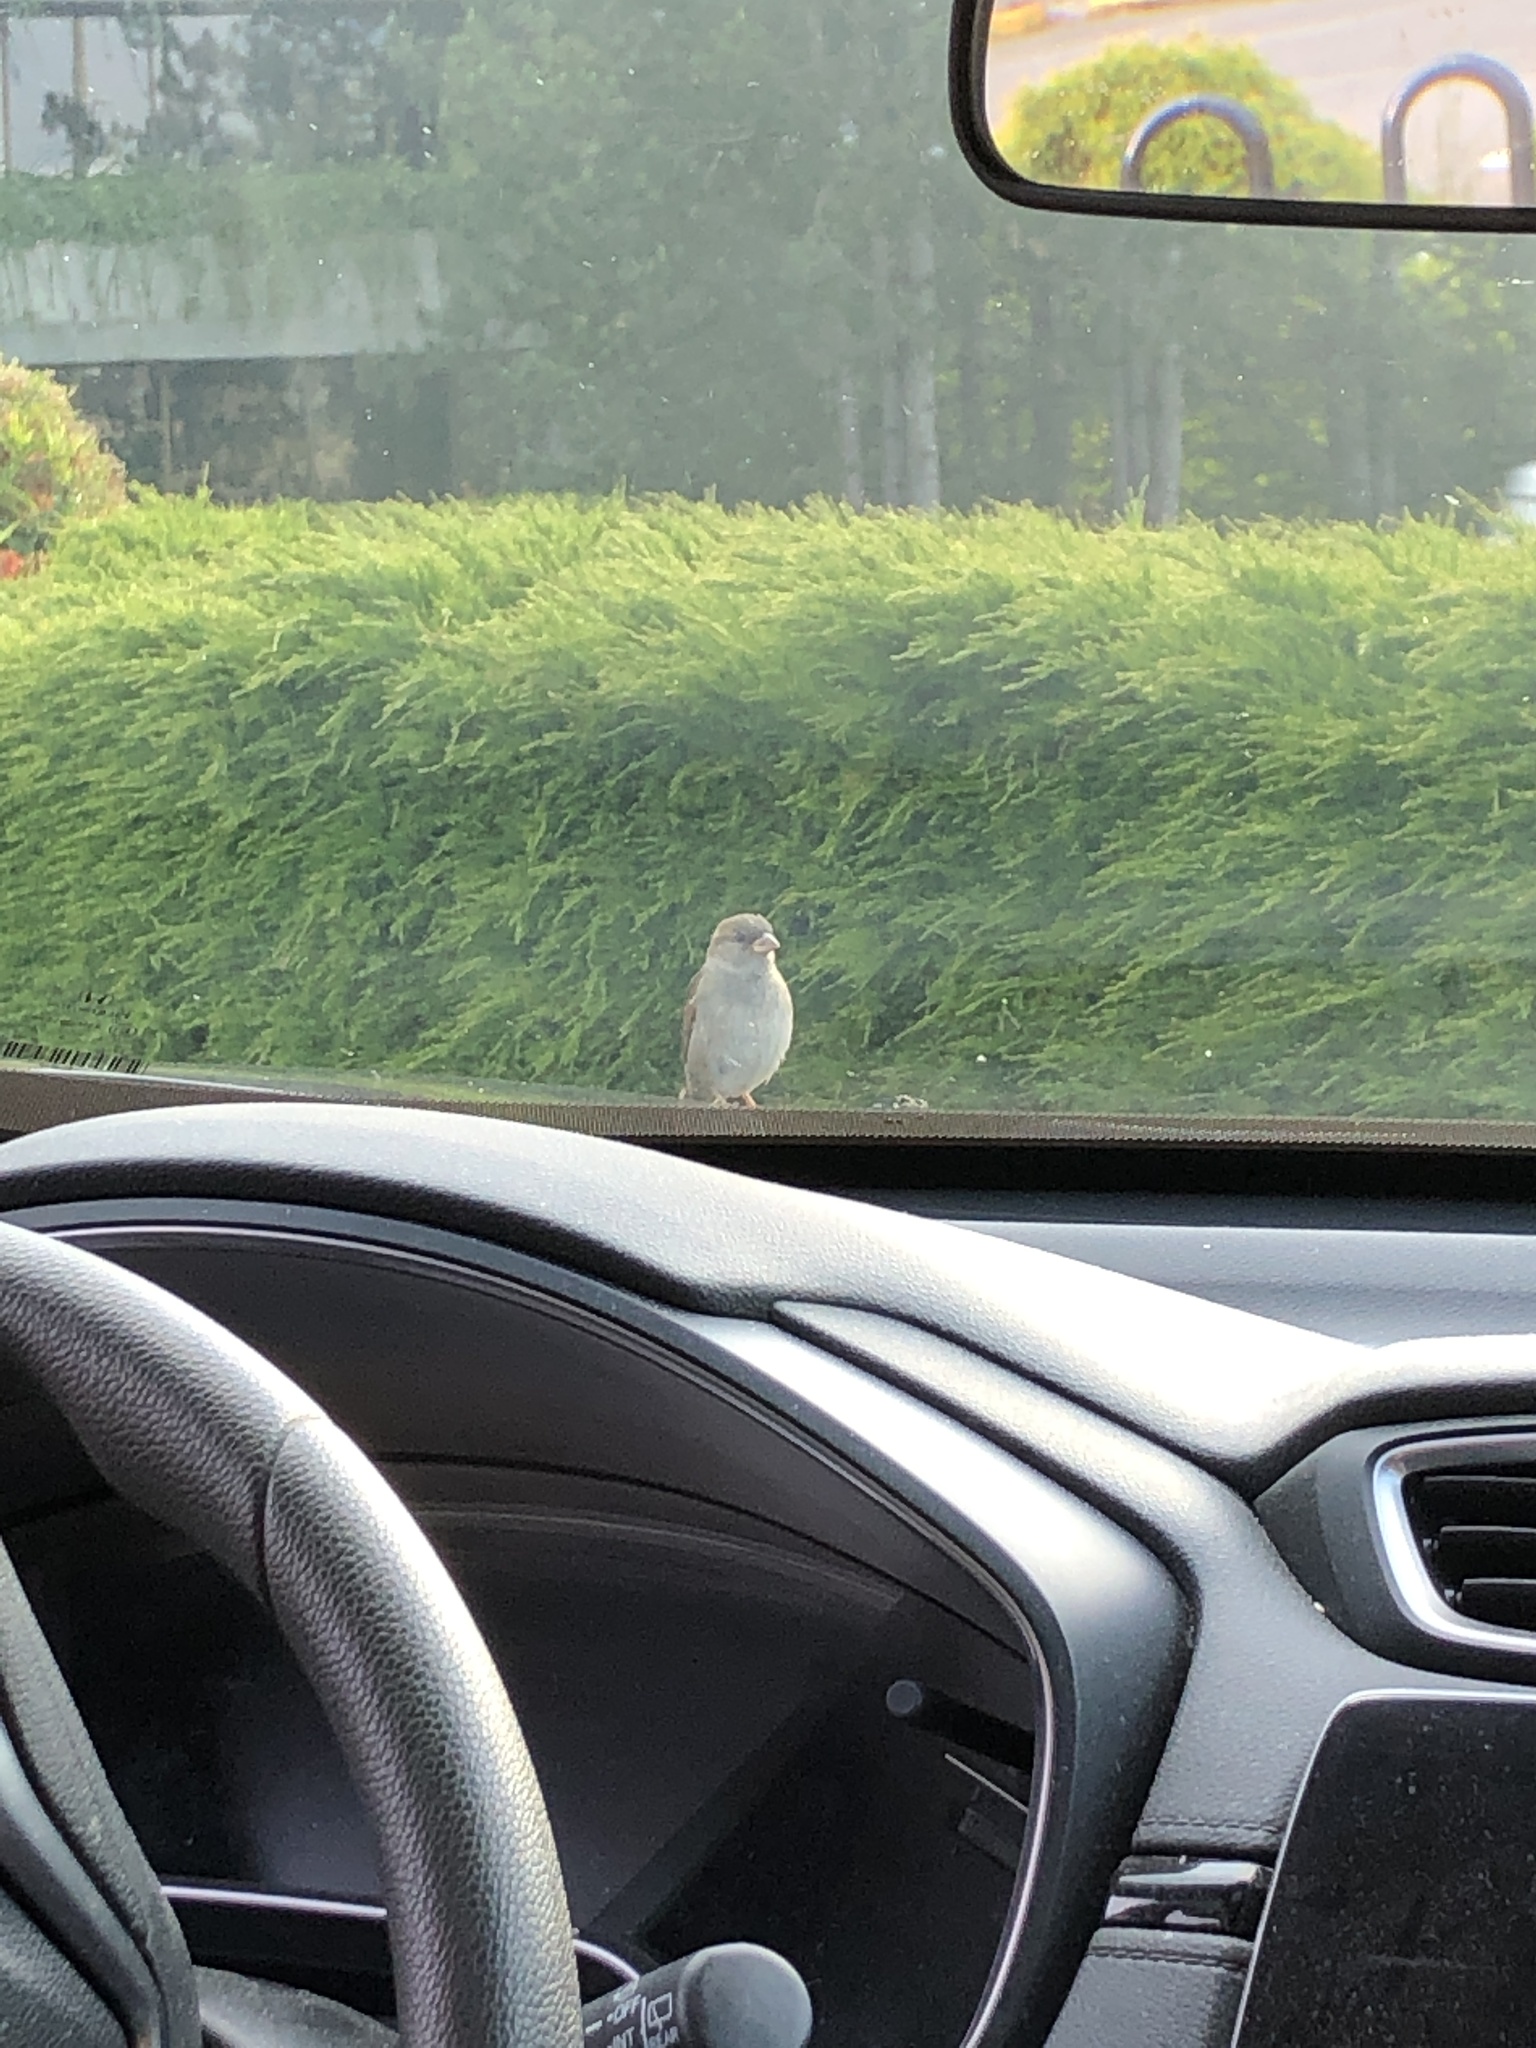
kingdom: Animalia
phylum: Chordata
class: Aves
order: Passeriformes
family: Passeridae
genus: Passer
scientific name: Passer domesticus
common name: House sparrow
